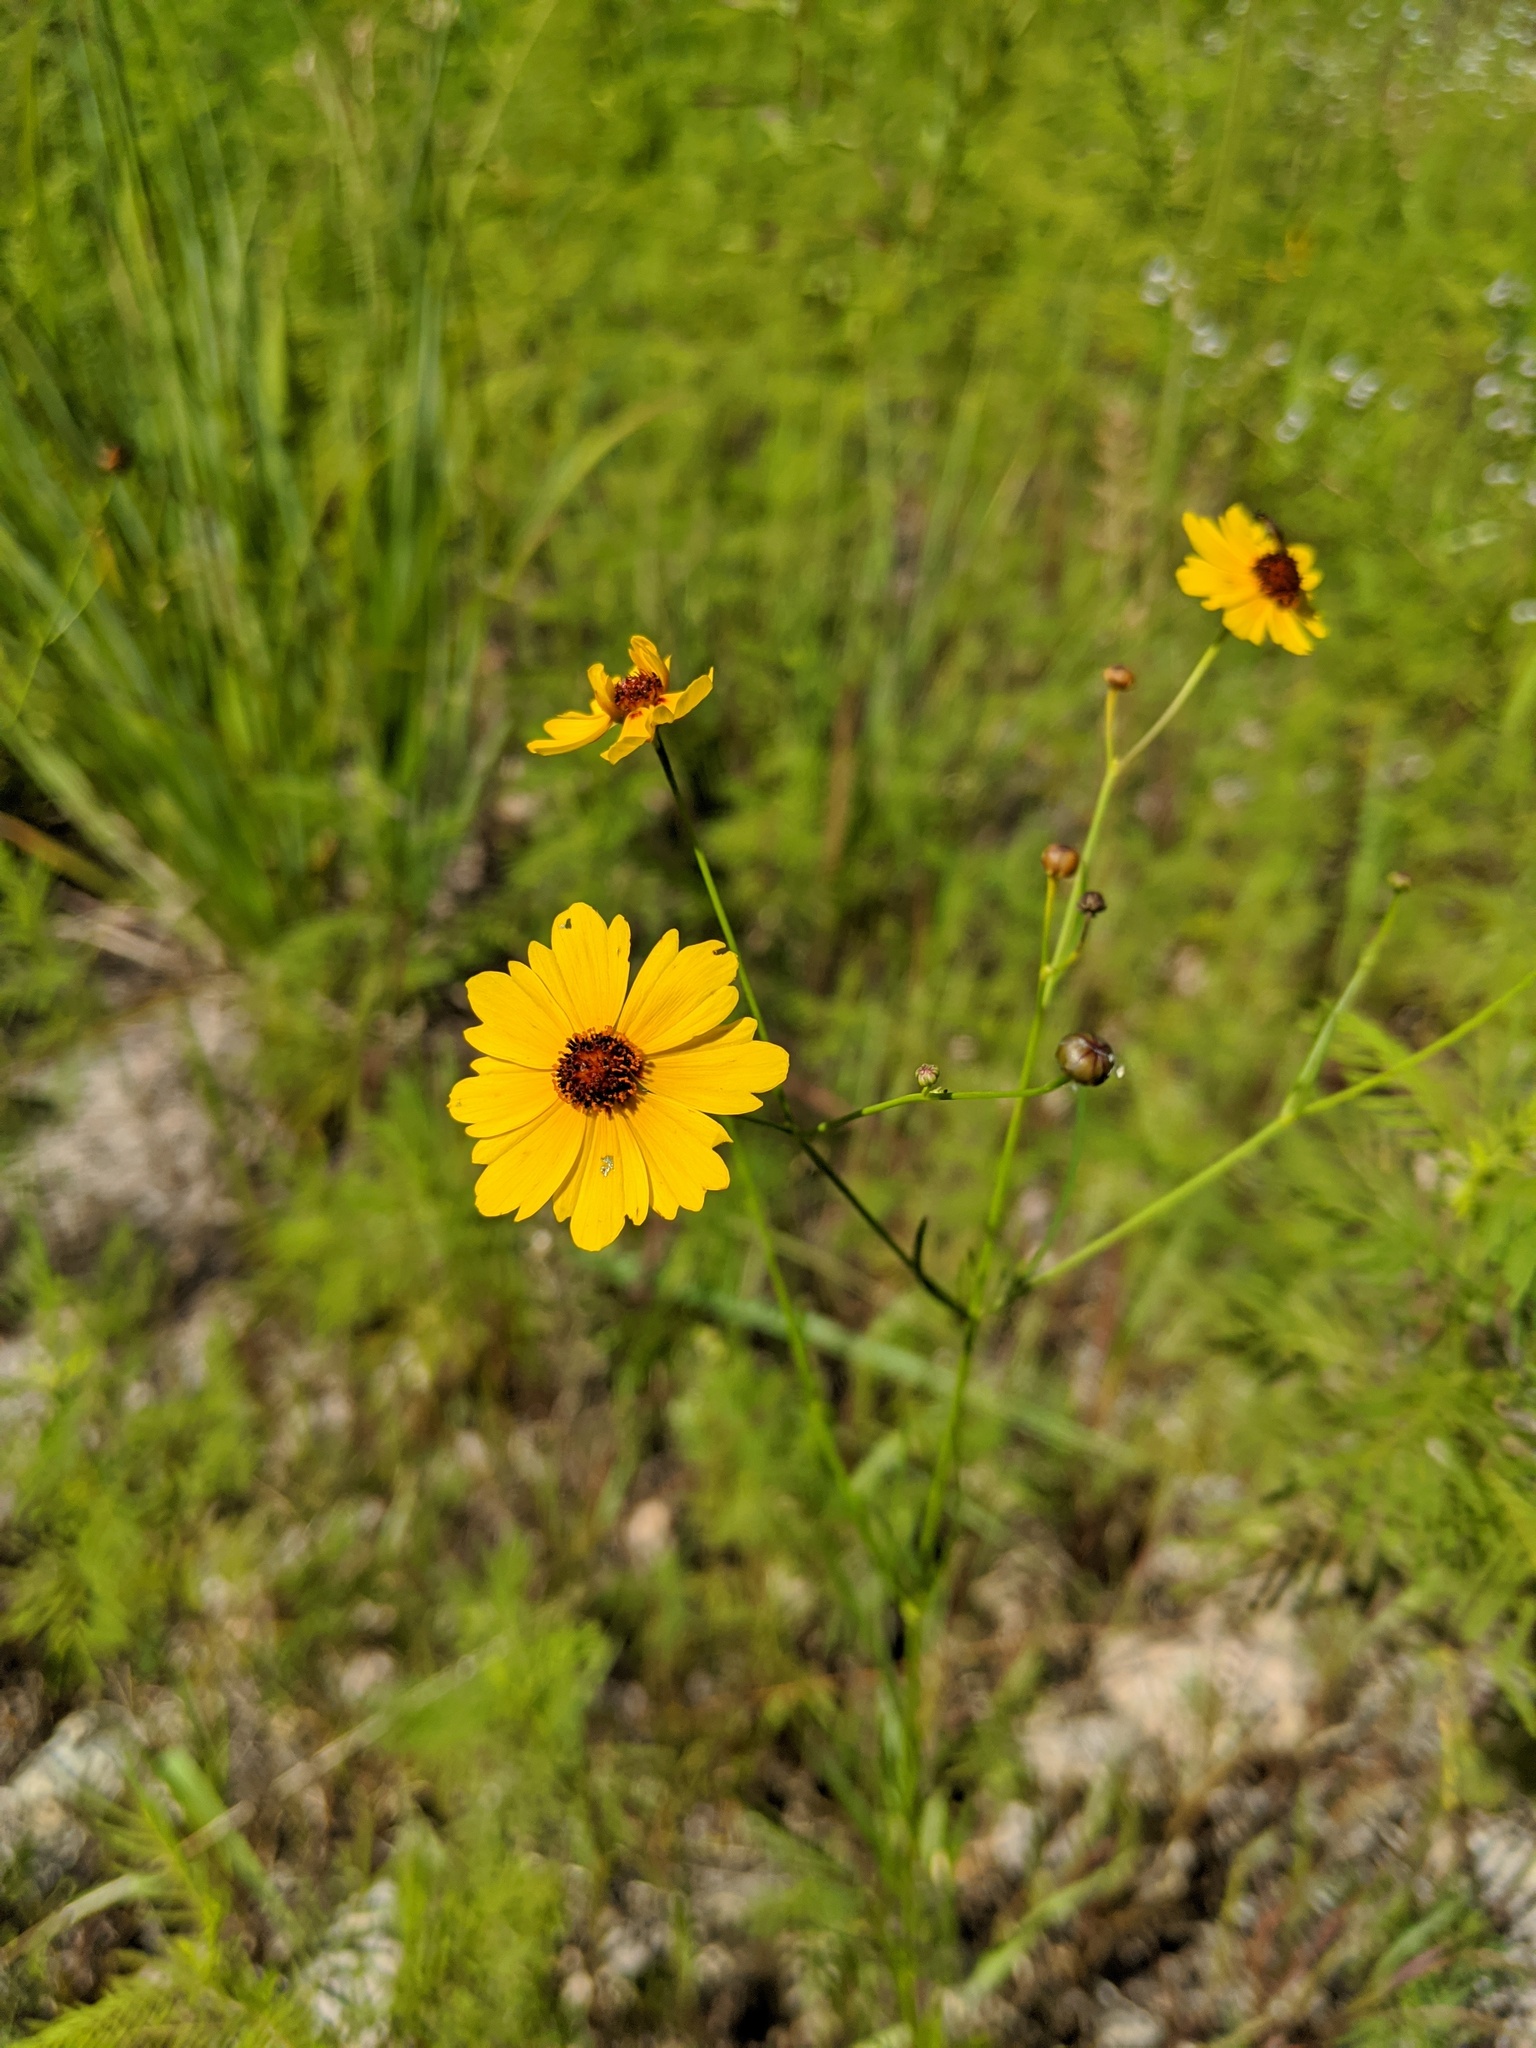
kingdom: Plantae
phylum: Tracheophyta
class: Magnoliopsida
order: Asterales
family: Asteraceae
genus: Coreopsis
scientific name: Coreopsis tinctoria
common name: Garden tickseed
